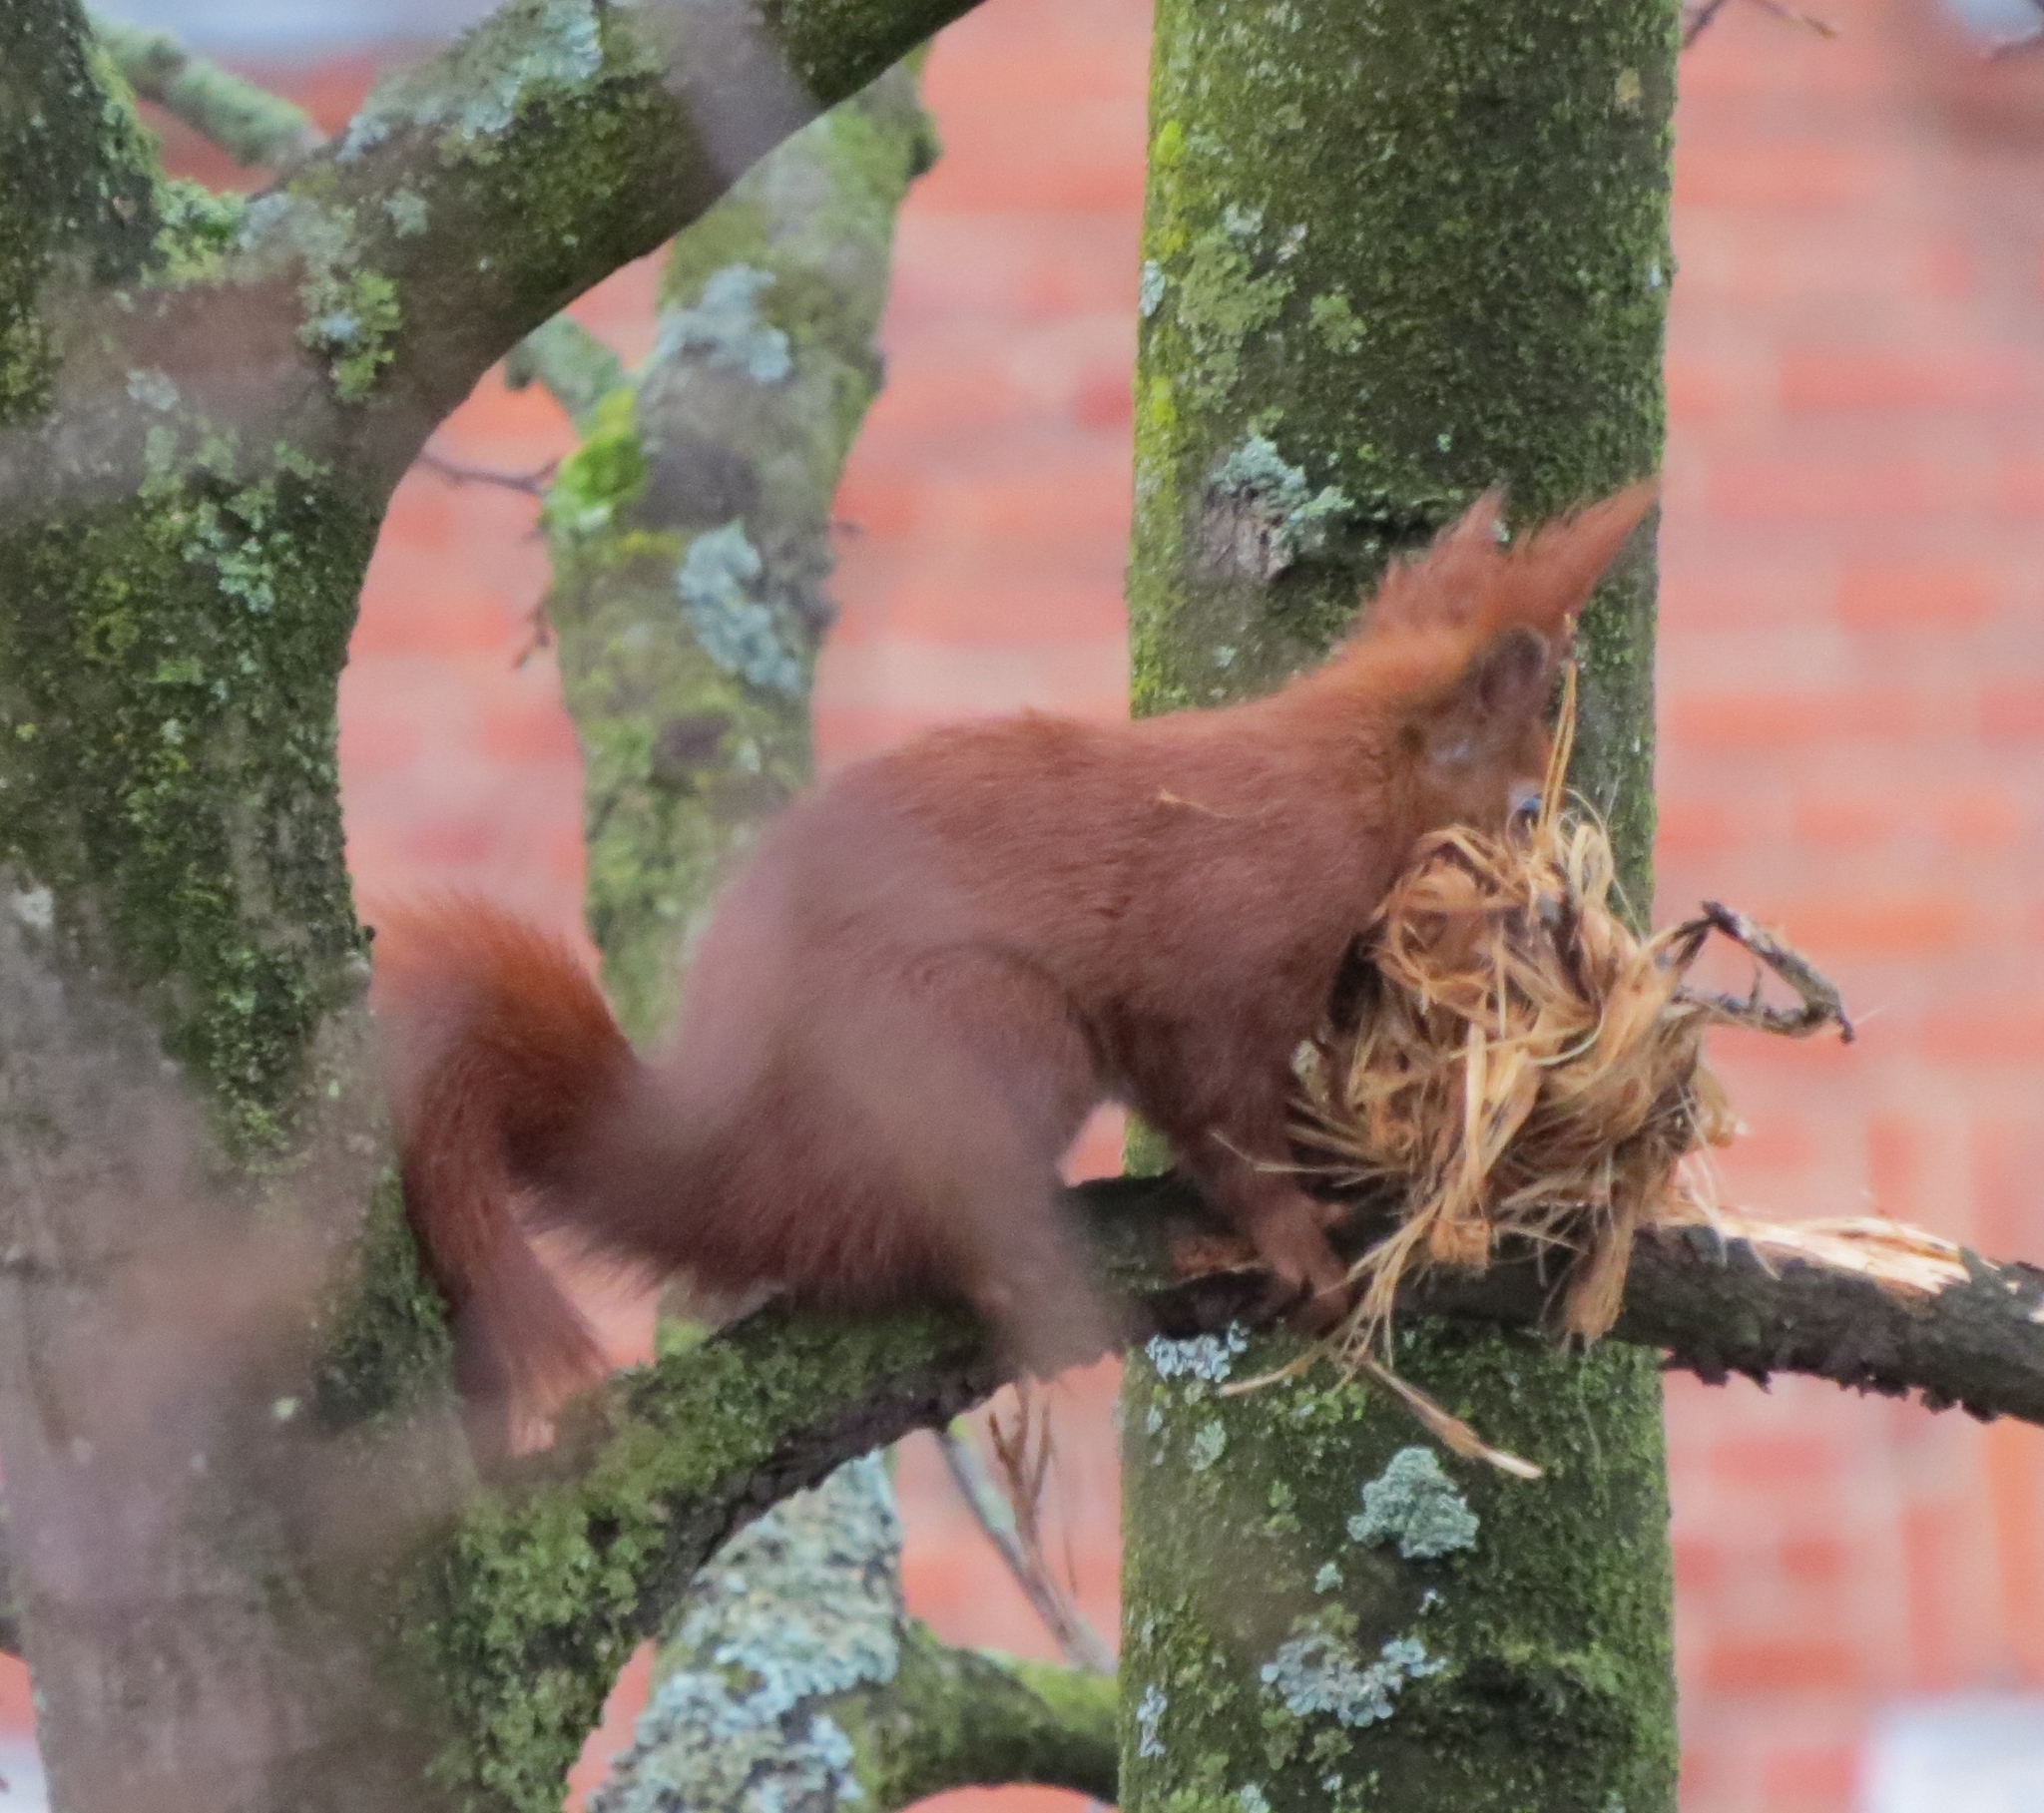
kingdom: Animalia
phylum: Chordata
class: Mammalia
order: Rodentia
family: Sciuridae
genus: Sciurus
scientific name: Sciurus vulgaris
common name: Eurasian red squirrel
